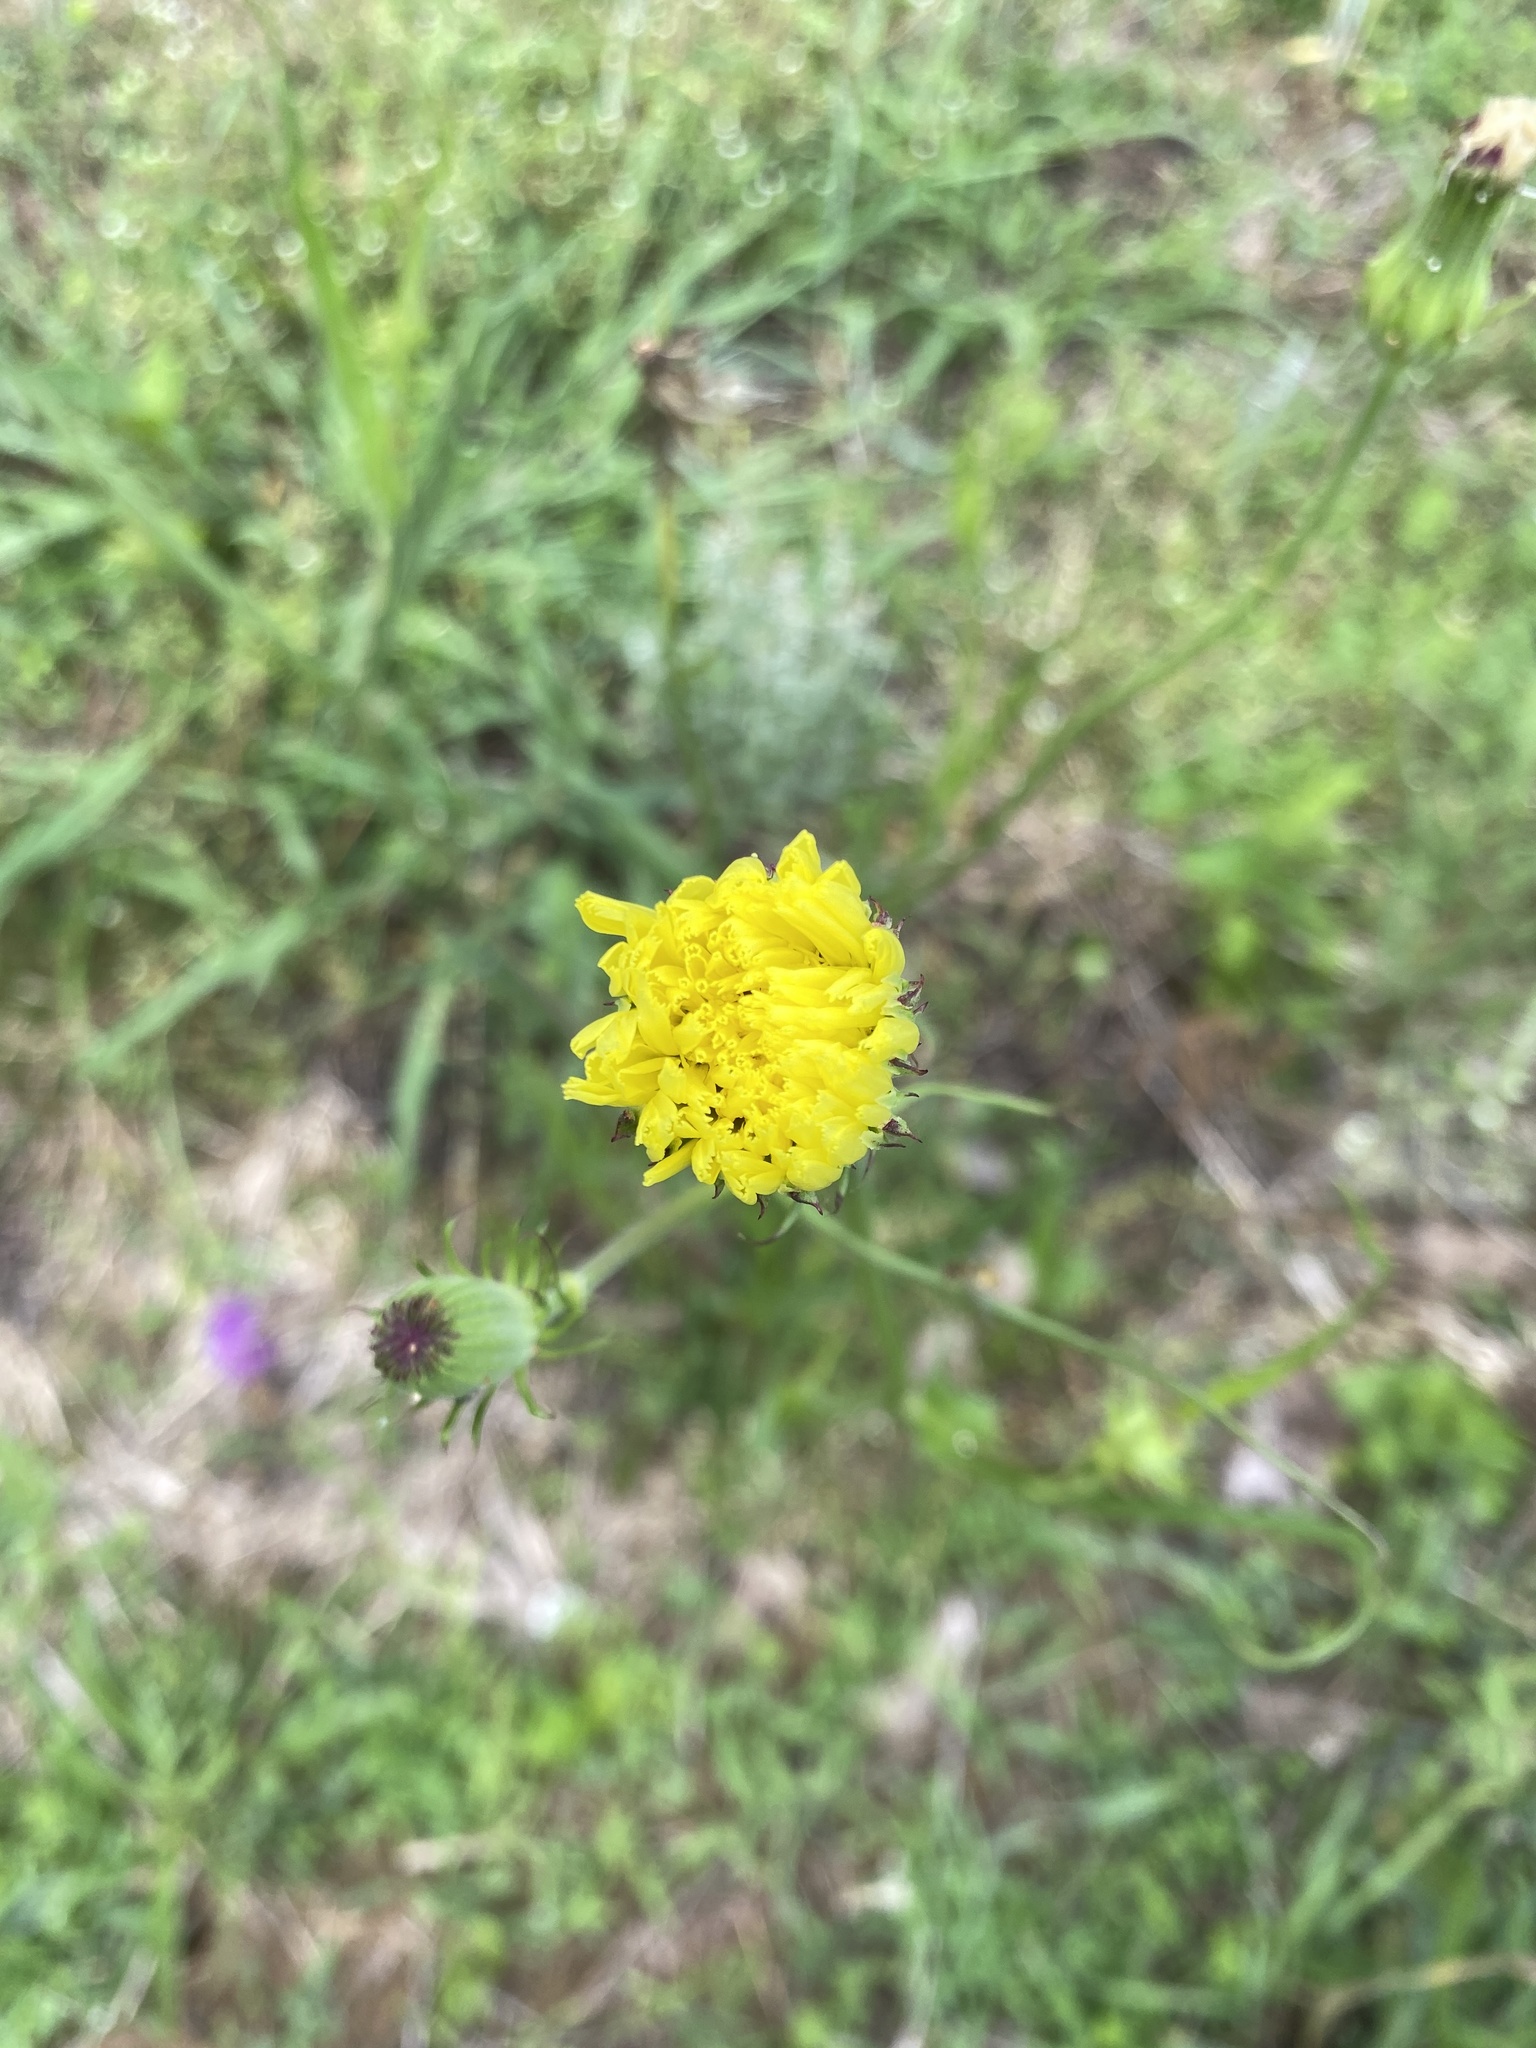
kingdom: Plantae
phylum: Tracheophyta
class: Magnoliopsida
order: Asterales
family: Asteraceae
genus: Pyrrhopappus
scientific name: Pyrrhopappus carolinianus
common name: Carolina desert-chicory
